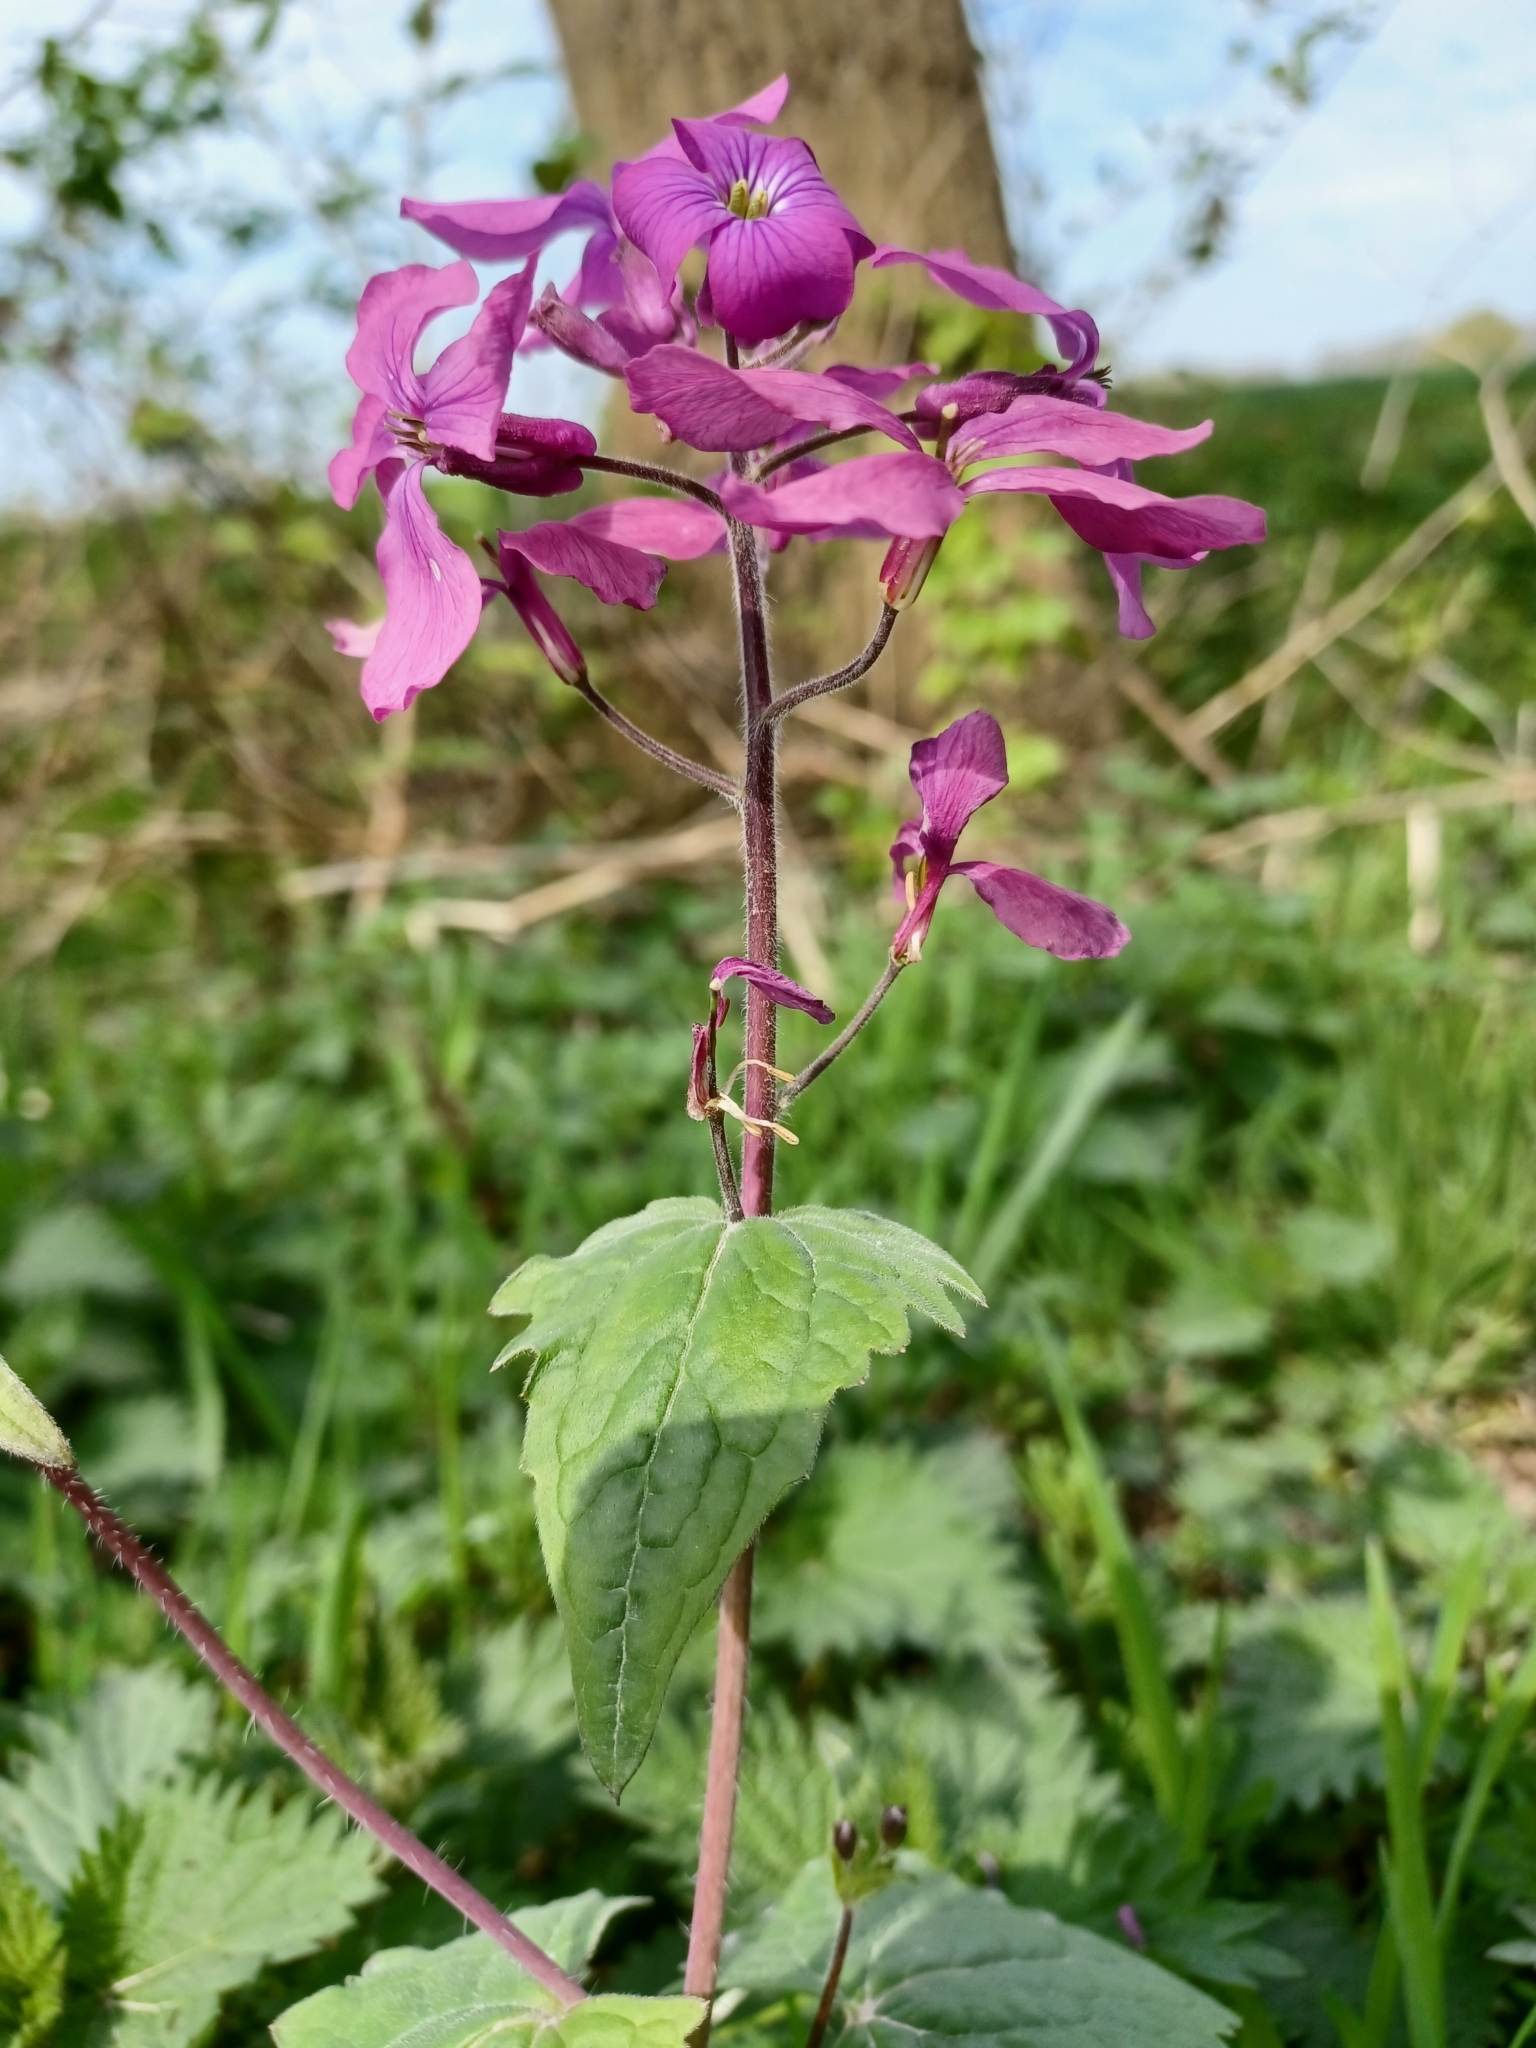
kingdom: Plantae
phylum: Tracheophyta
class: Magnoliopsida
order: Brassicales
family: Brassicaceae
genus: Lunaria
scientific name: Lunaria annua
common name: Honesty
